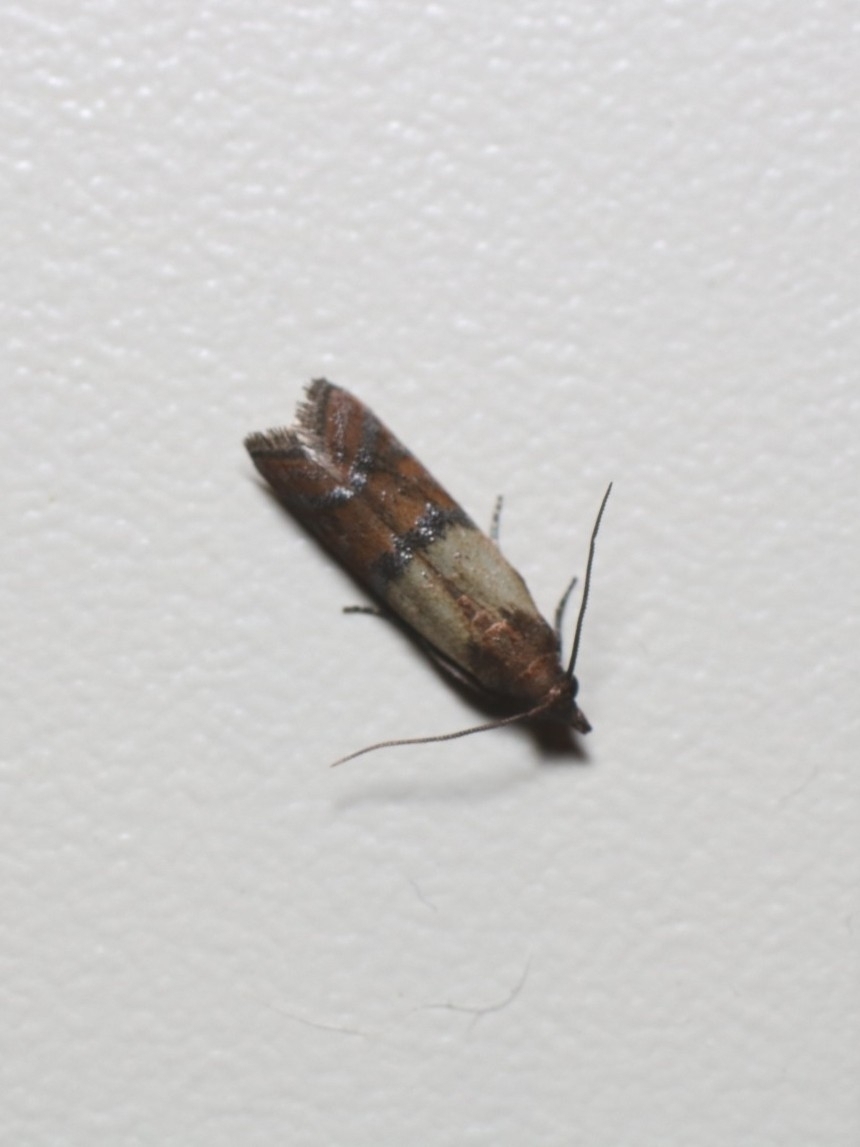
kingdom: Animalia
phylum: Arthropoda
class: Insecta
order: Lepidoptera
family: Pyralidae
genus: Plodia
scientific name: Plodia interpunctella
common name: Indian meal moth
